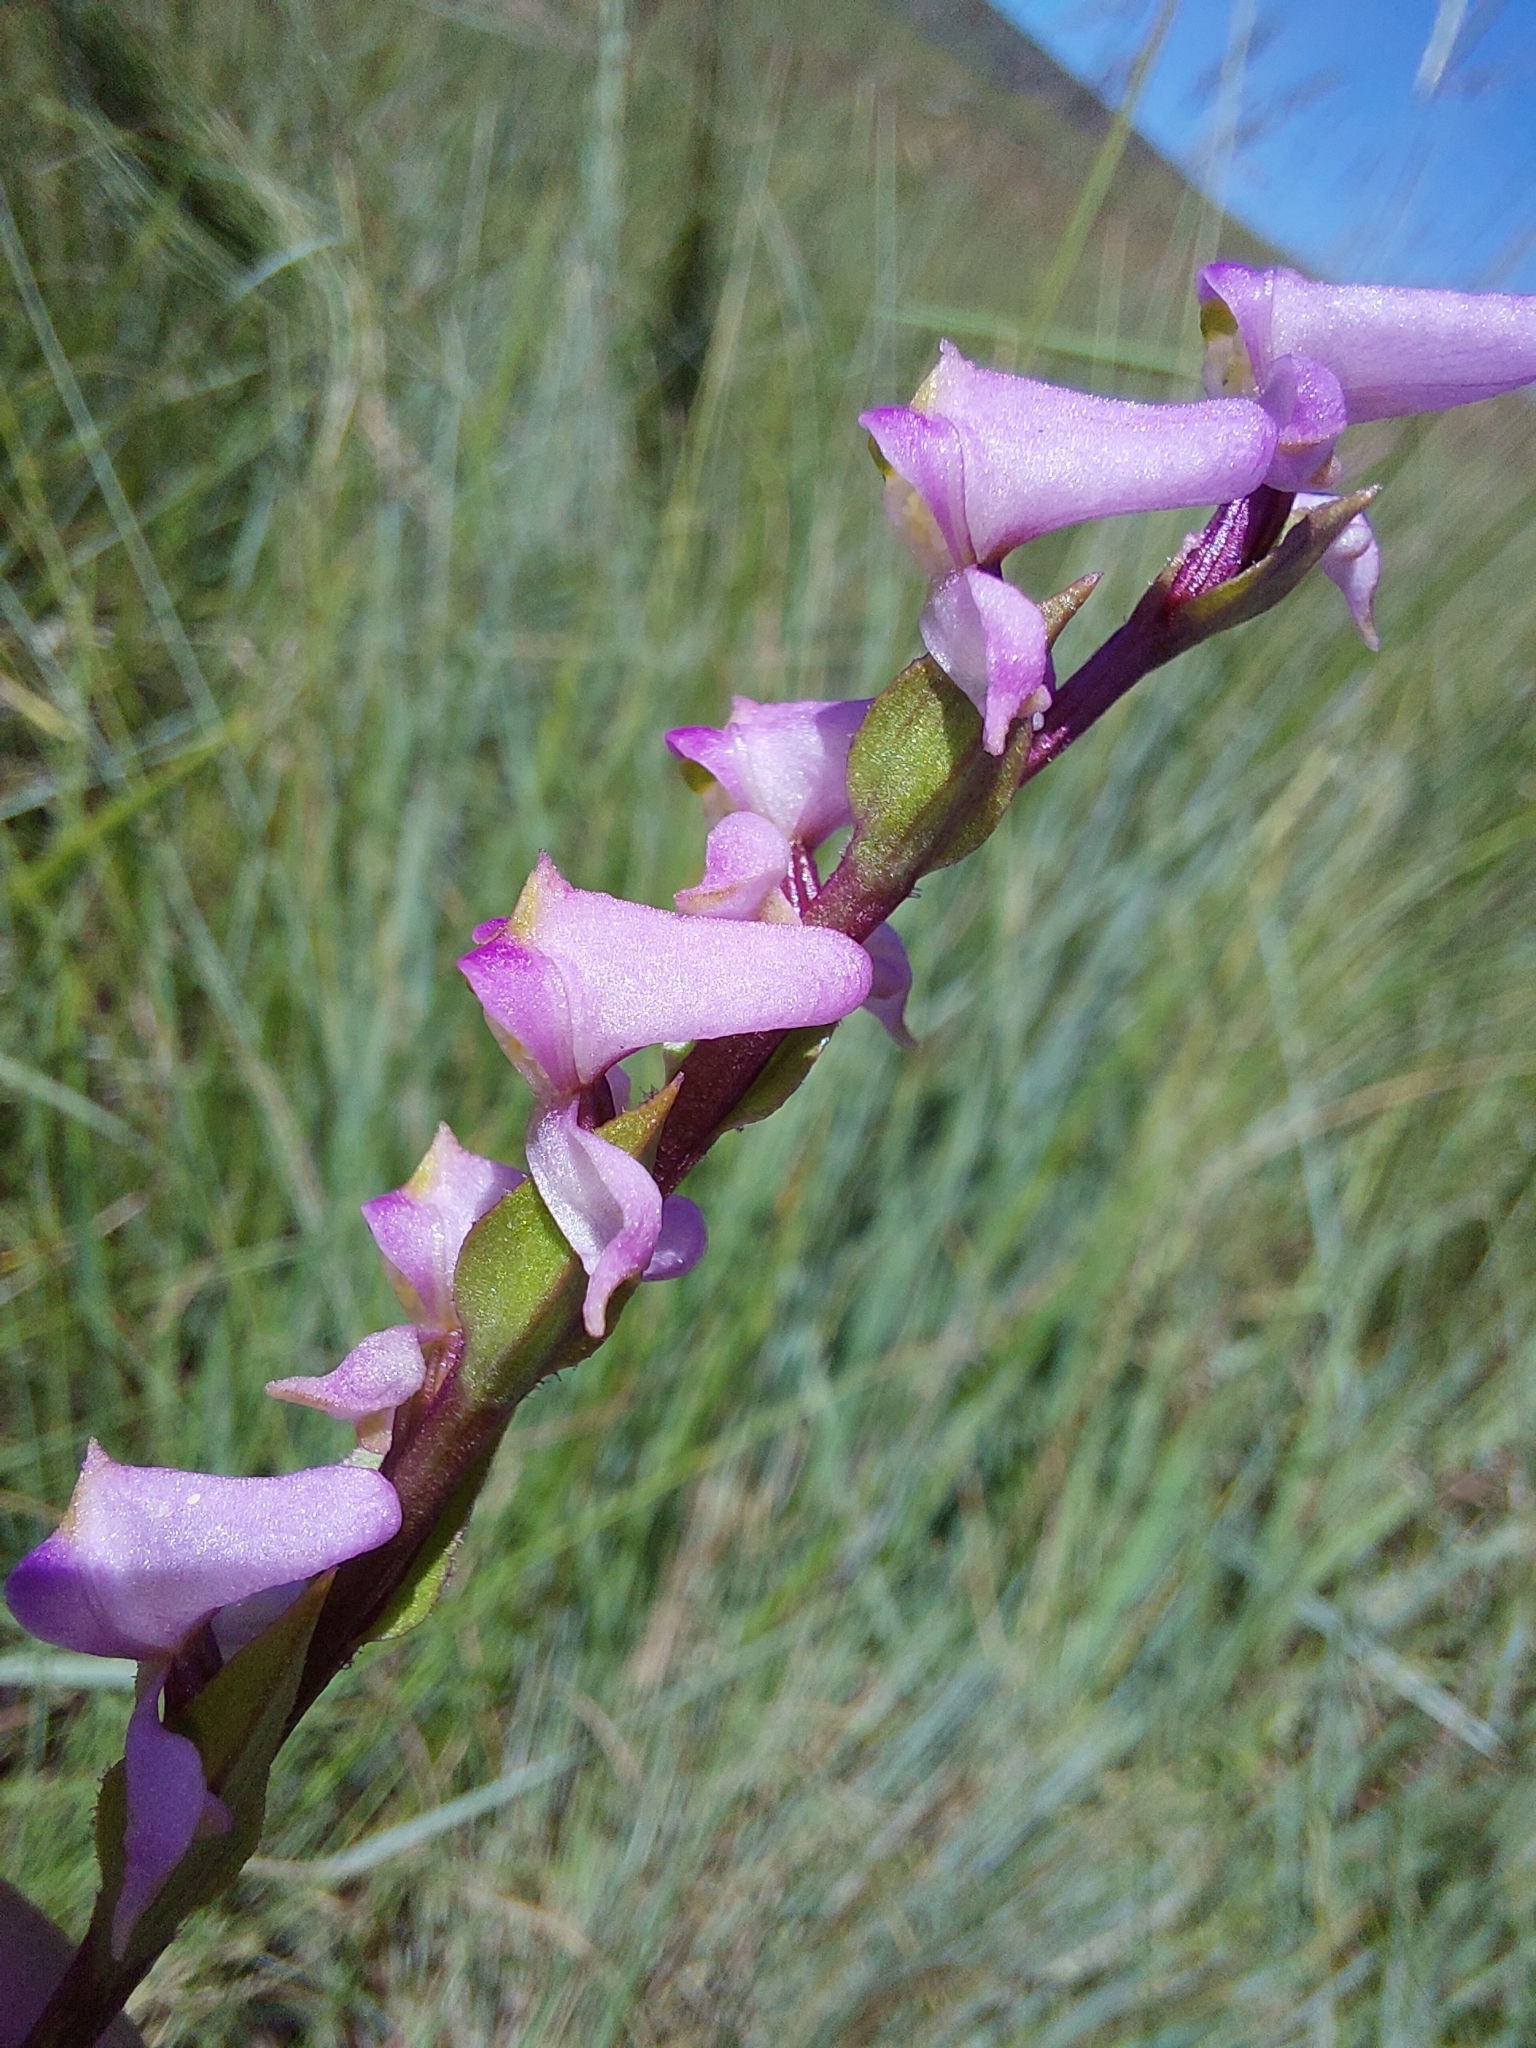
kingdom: Plantae
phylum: Tracheophyta
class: Liliopsida
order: Asparagales
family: Orchidaceae
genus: Disperis
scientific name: Disperis tysonii
